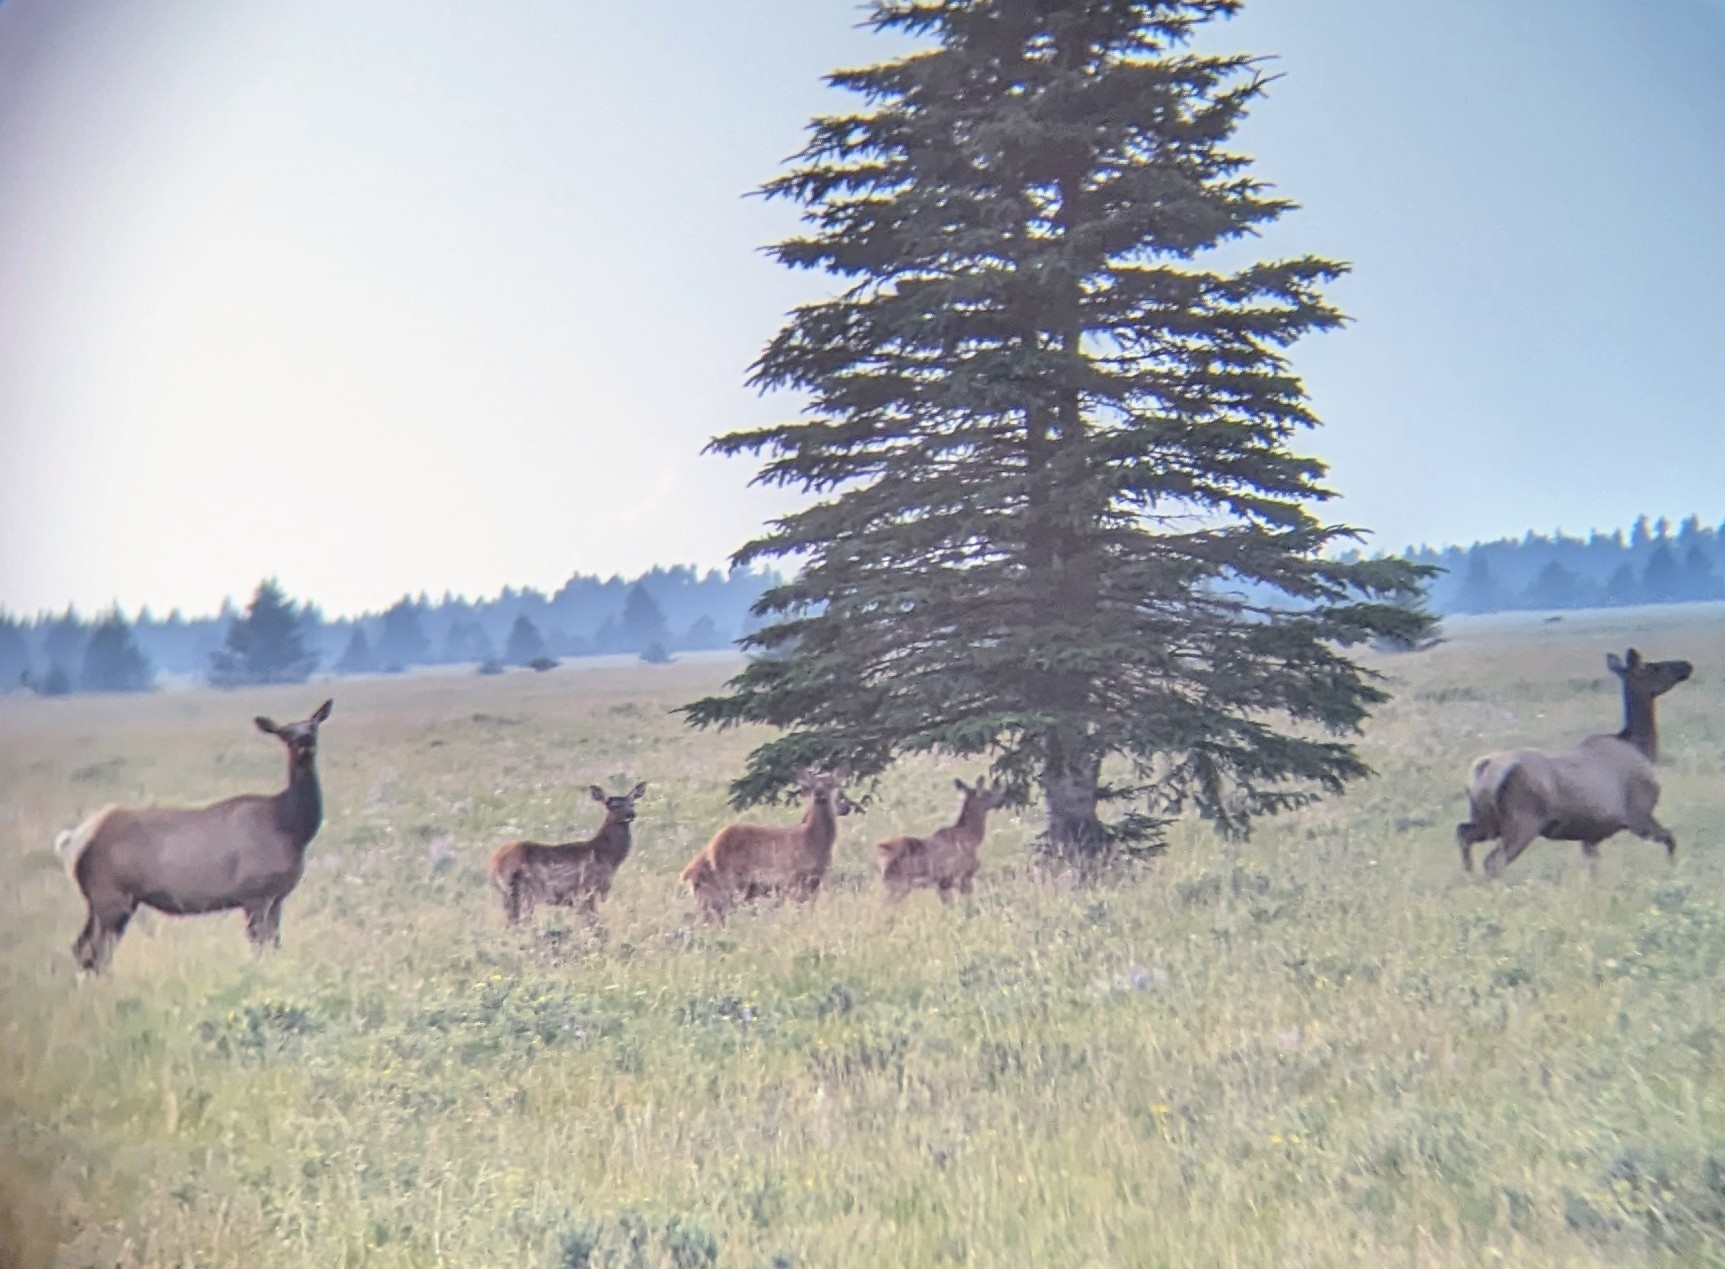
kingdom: Animalia
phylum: Chordata
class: Mammalia
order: Artiodactyla
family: Cervidae
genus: Cervus
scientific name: Cervus elaphus
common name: Red deer
